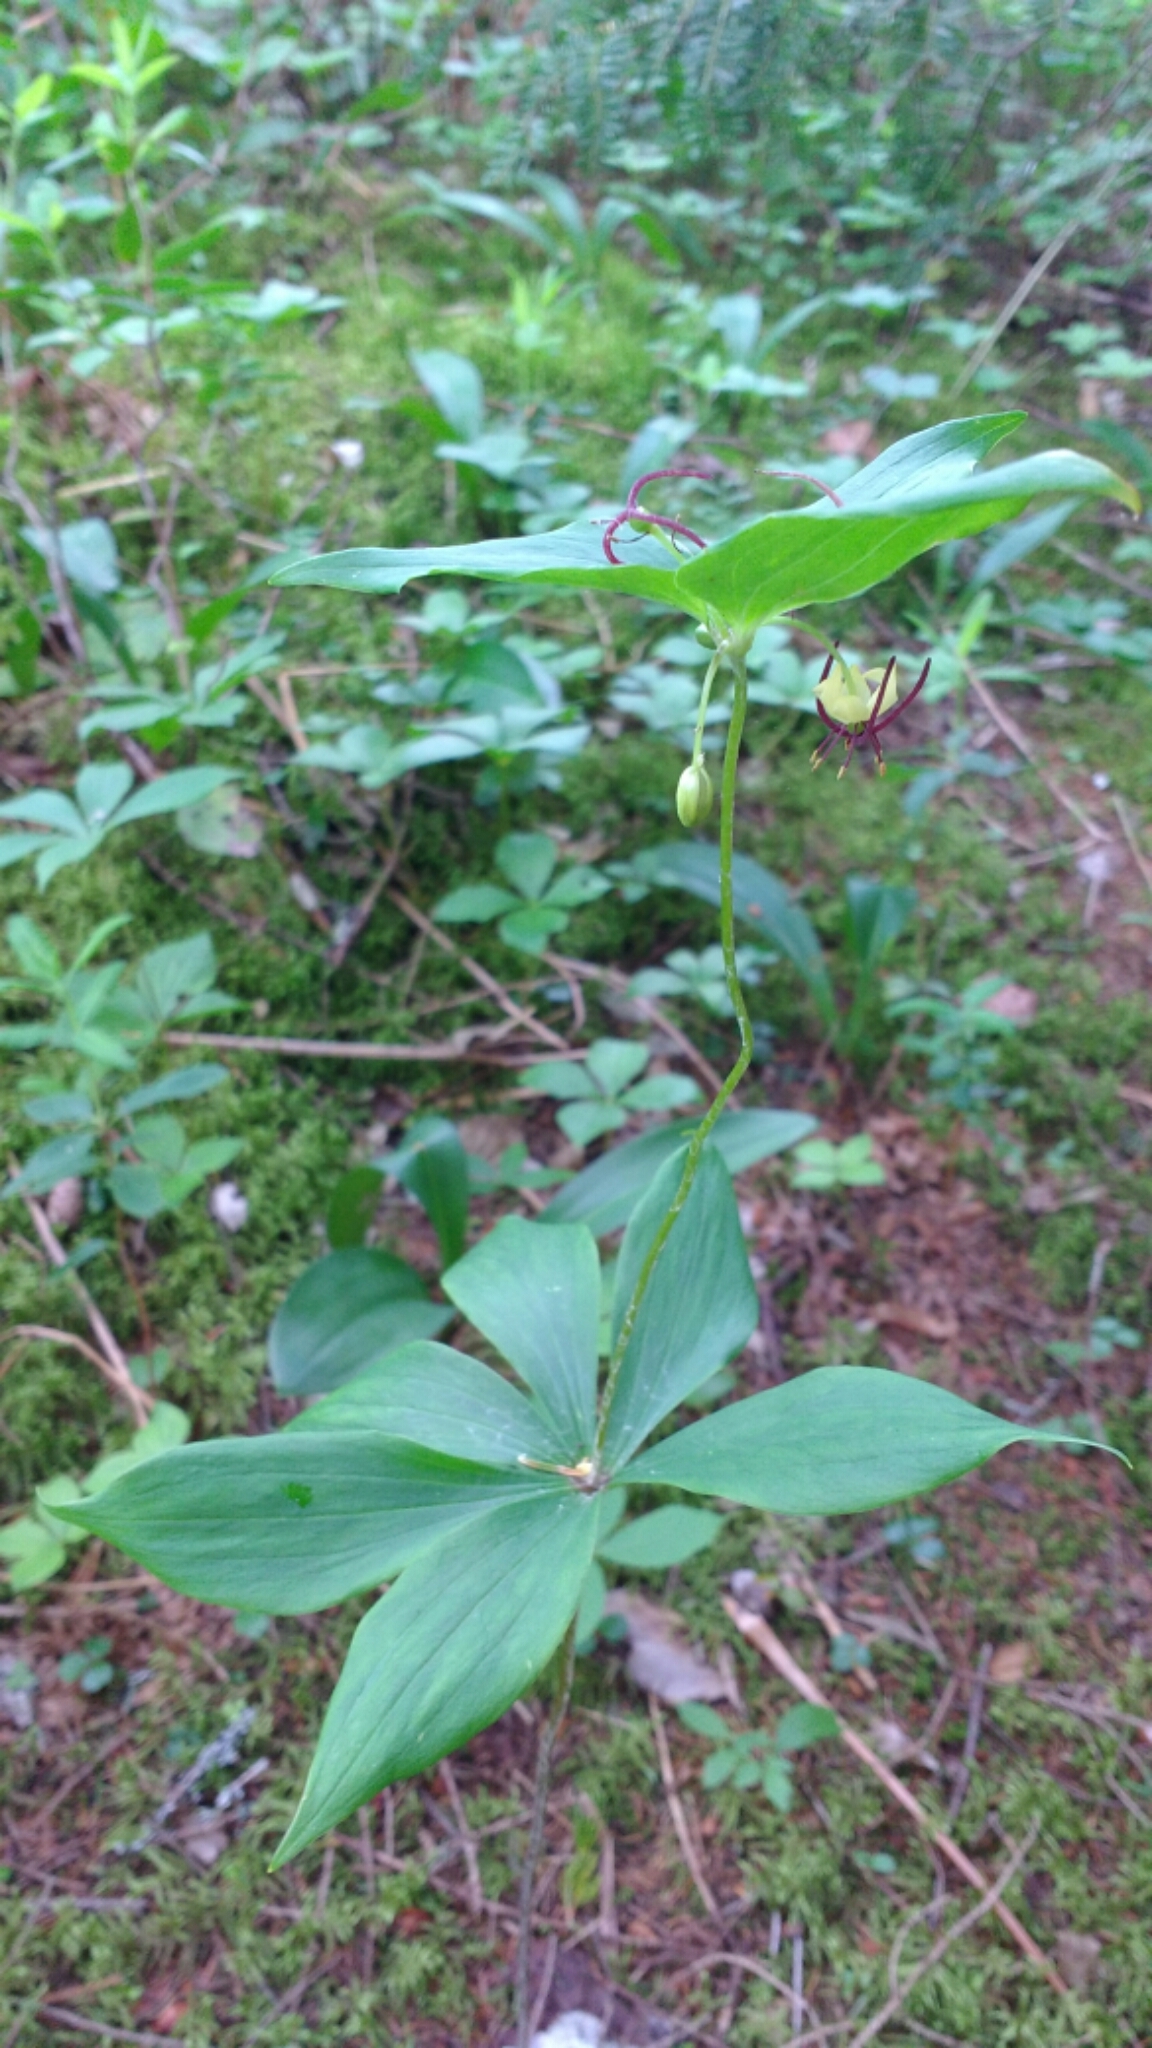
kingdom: Plantae
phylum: Tracheophyta
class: Liliopsida
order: Liliales
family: Liliaceae
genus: Medeola
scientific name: Medeola virginiana
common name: Indian cucumber-root
